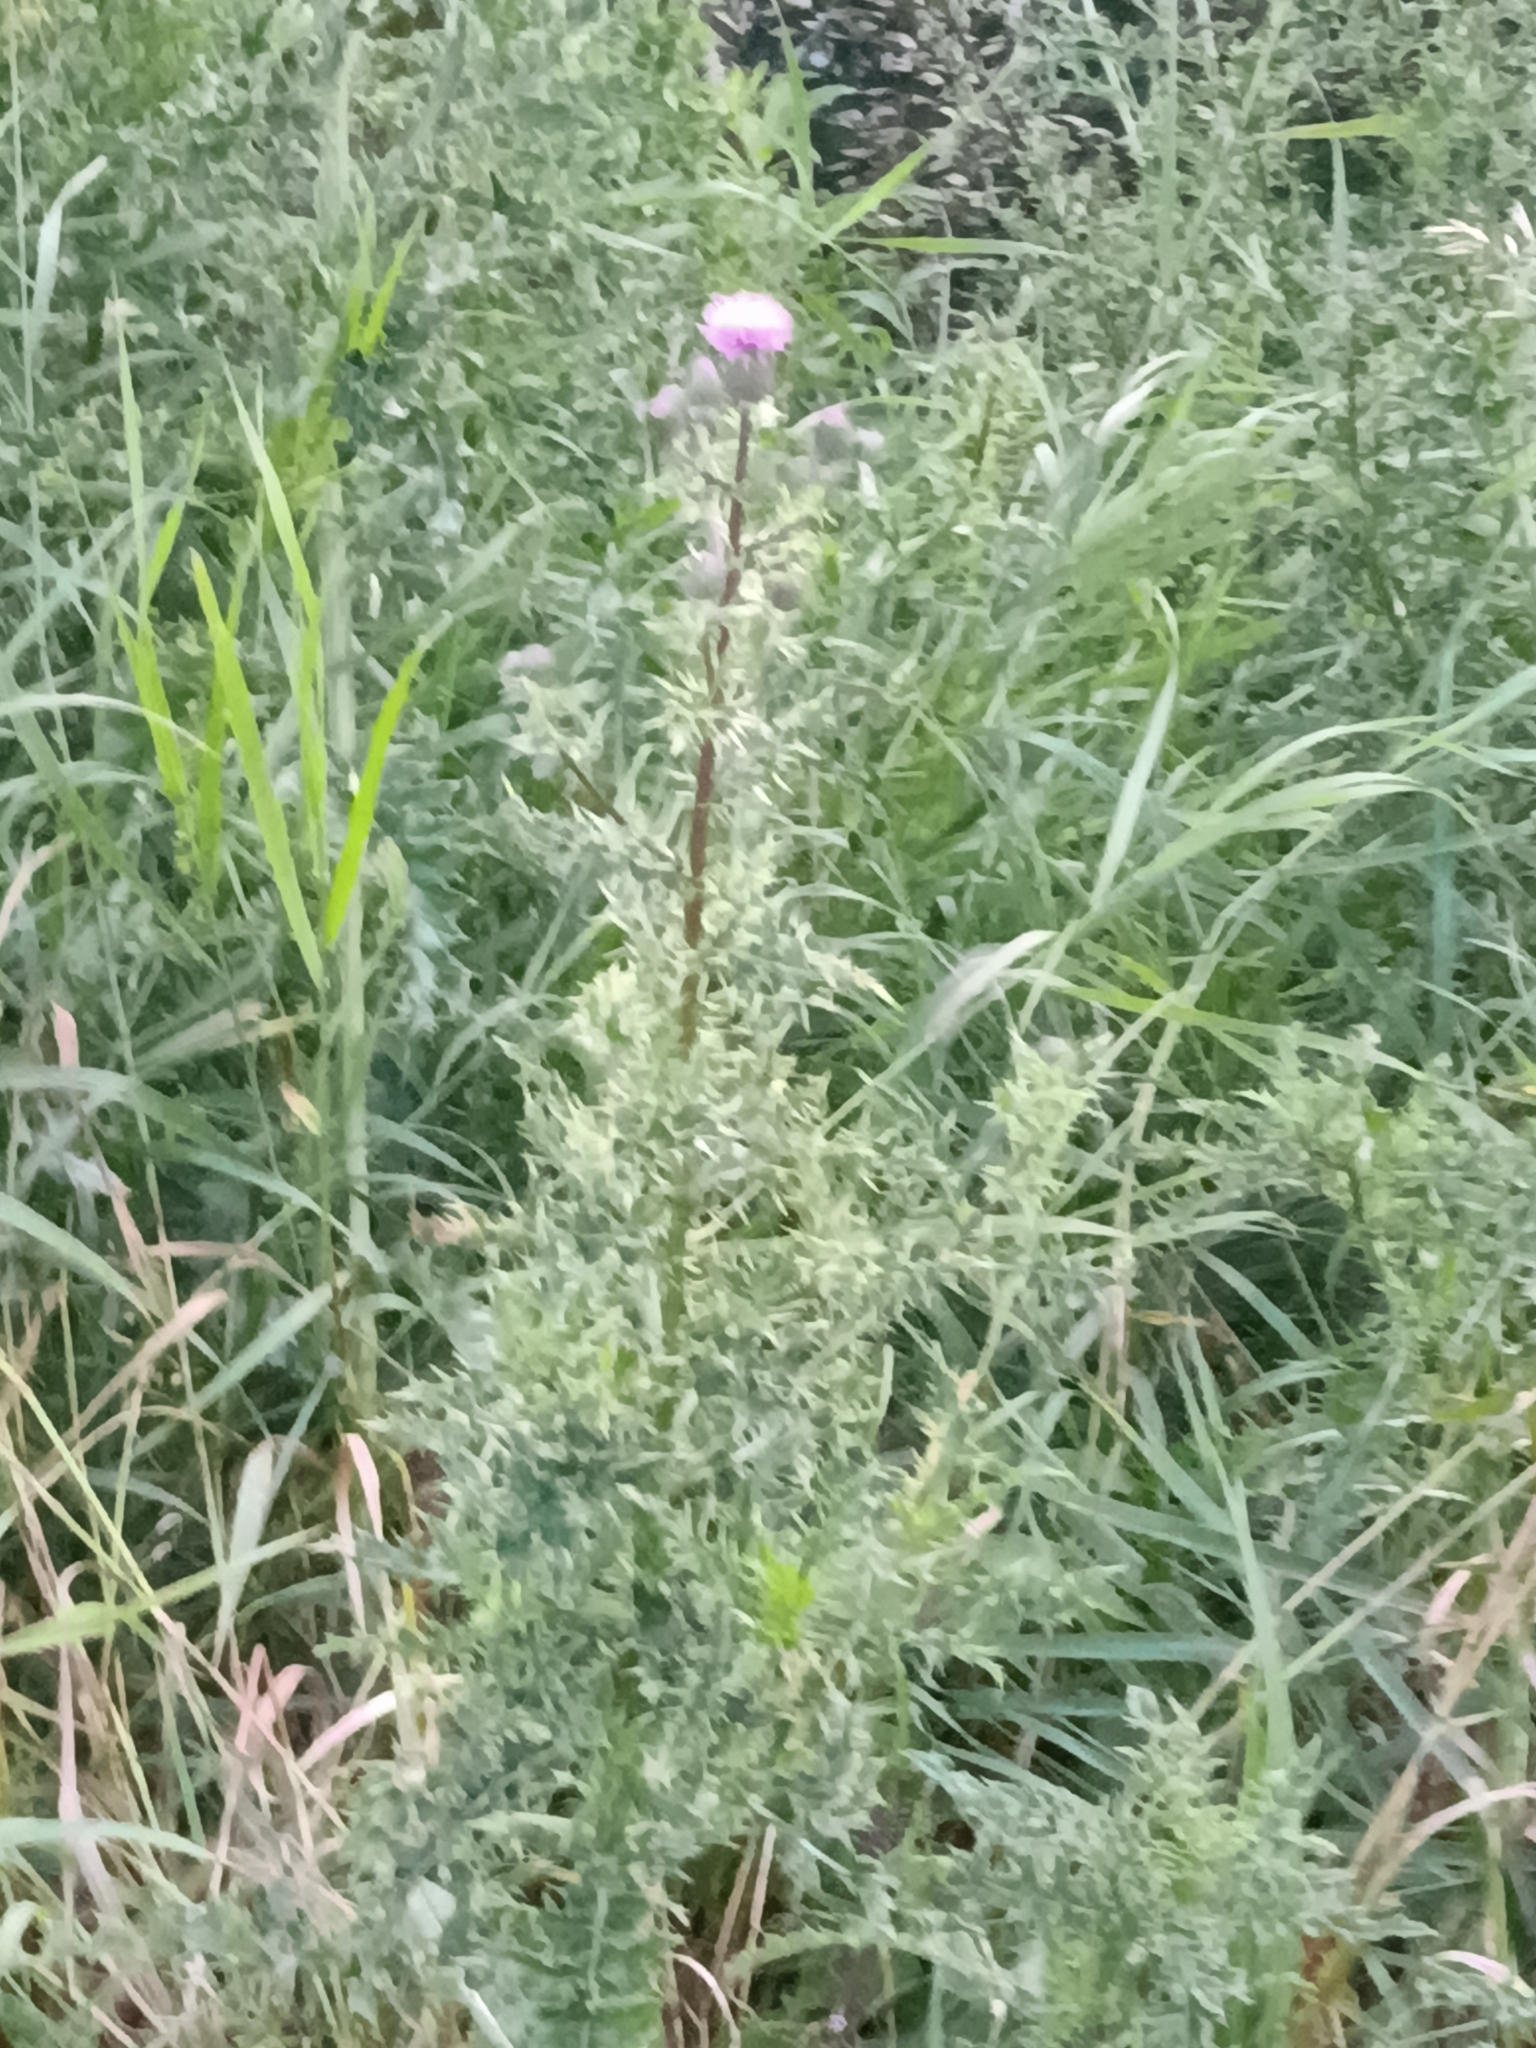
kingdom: Plantae
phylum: Tracheophyta
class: Magnoliopsida
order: Asterales
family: Asteraceae
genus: Cirsium
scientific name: Cirsium arvense
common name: Creeping thistle
